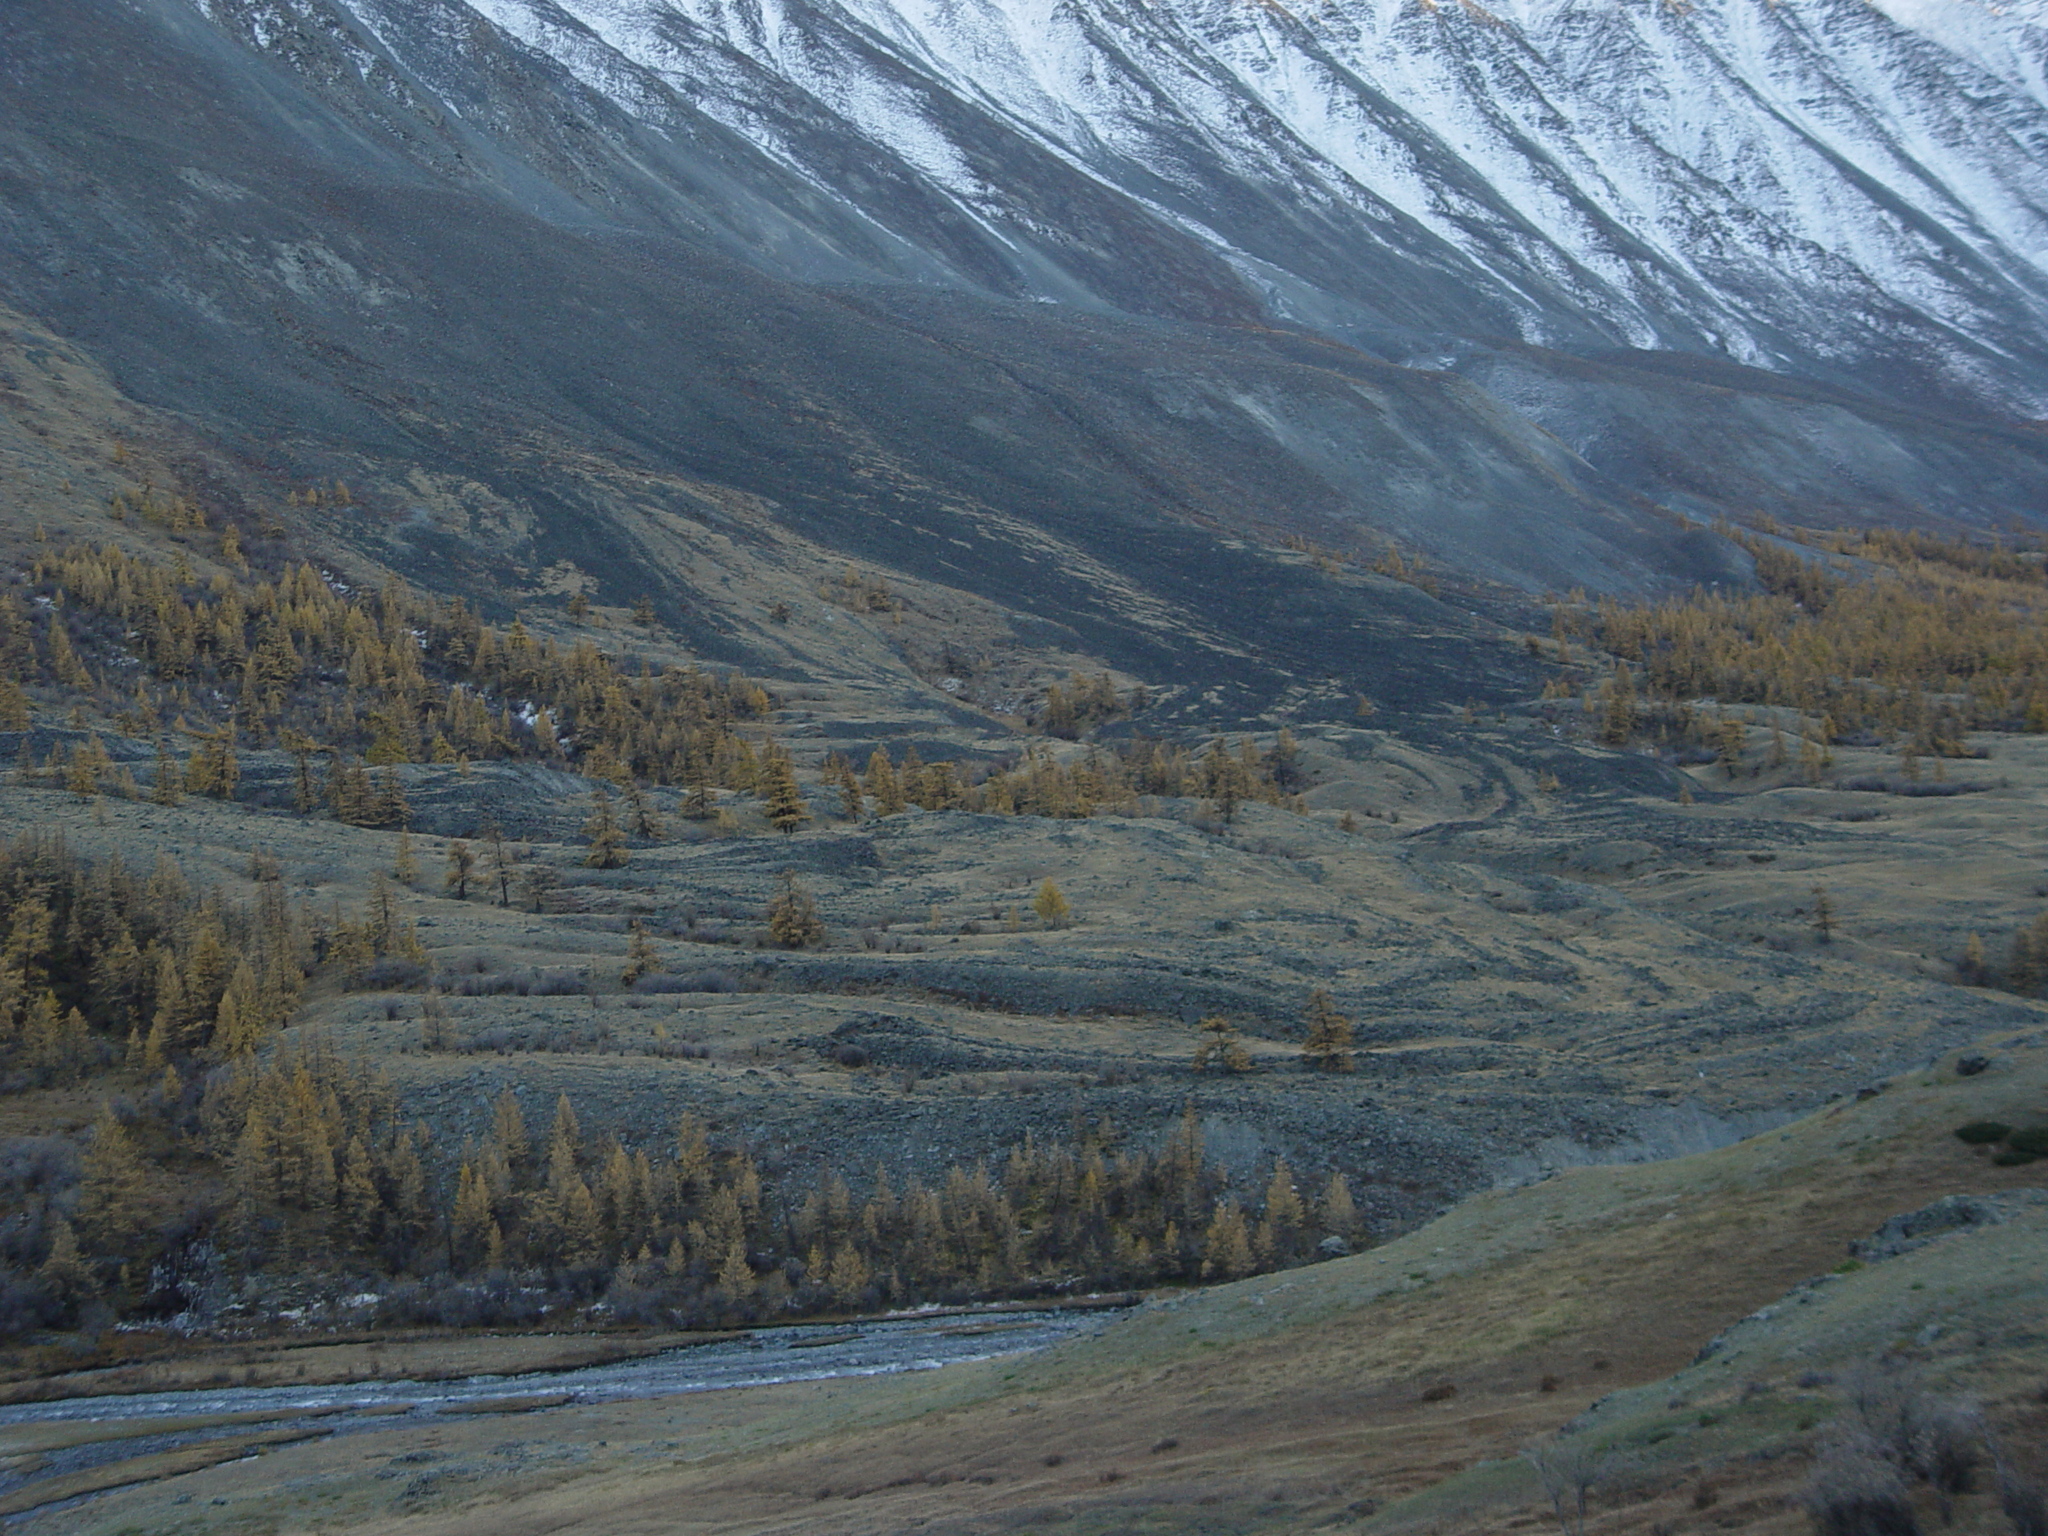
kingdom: Plantae
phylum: Tracheophyta
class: Pinopsida
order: Pinales
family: Pinaceae
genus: Larix
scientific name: Larix sibirica
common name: Siberian larch
